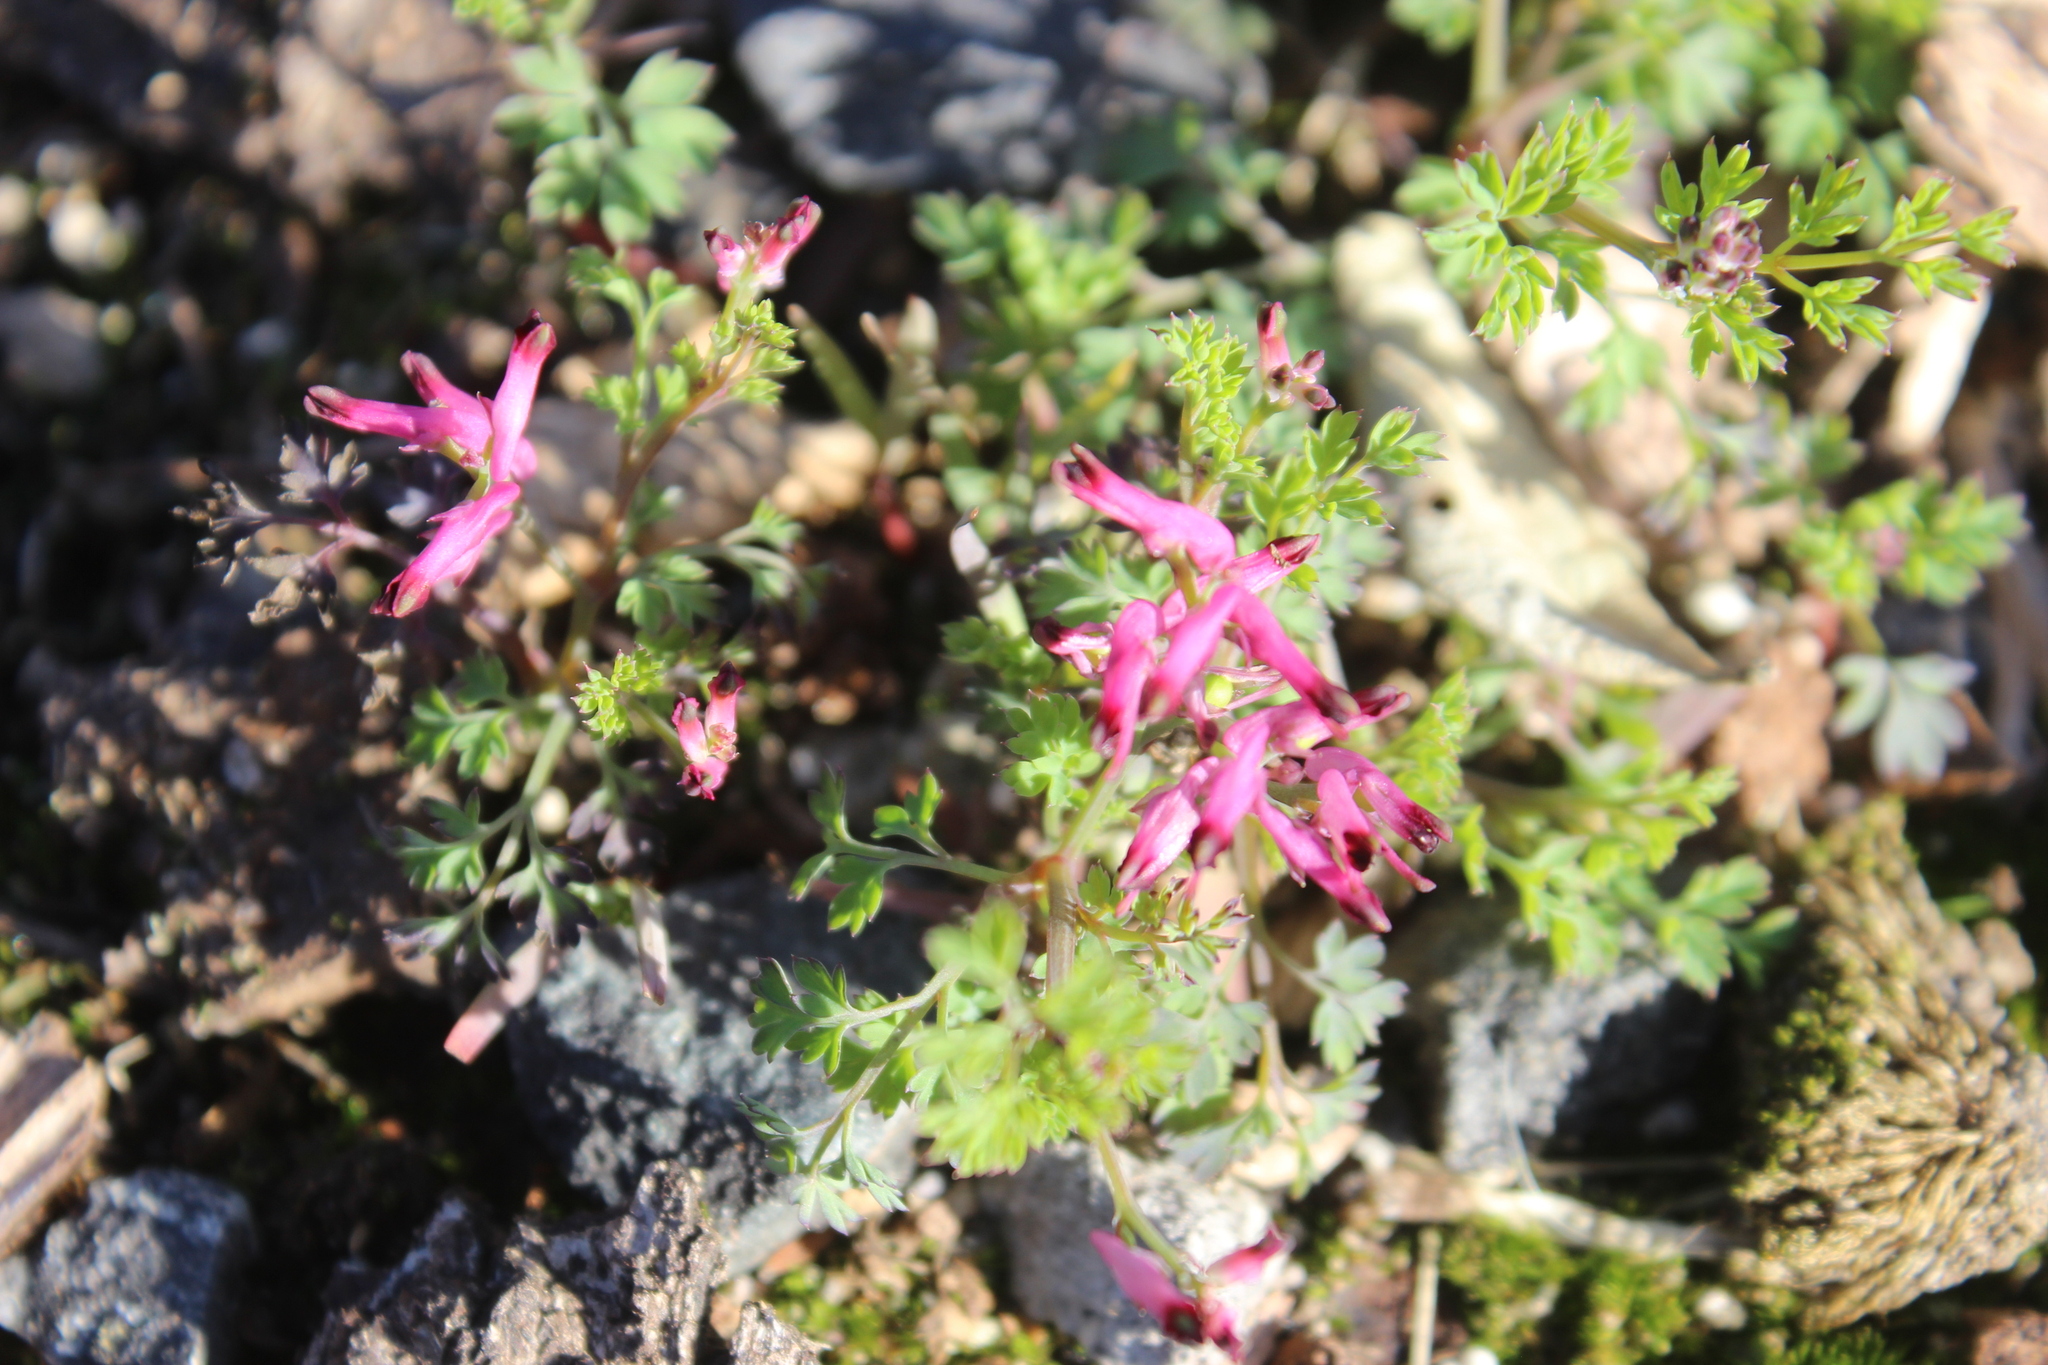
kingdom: Plantae
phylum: Tracheophyta
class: Magnoliopsida
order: Ranunculales
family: Papaveraceae
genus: Fumaria
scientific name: Fumaria muralis
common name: Common ramping-fumitory
